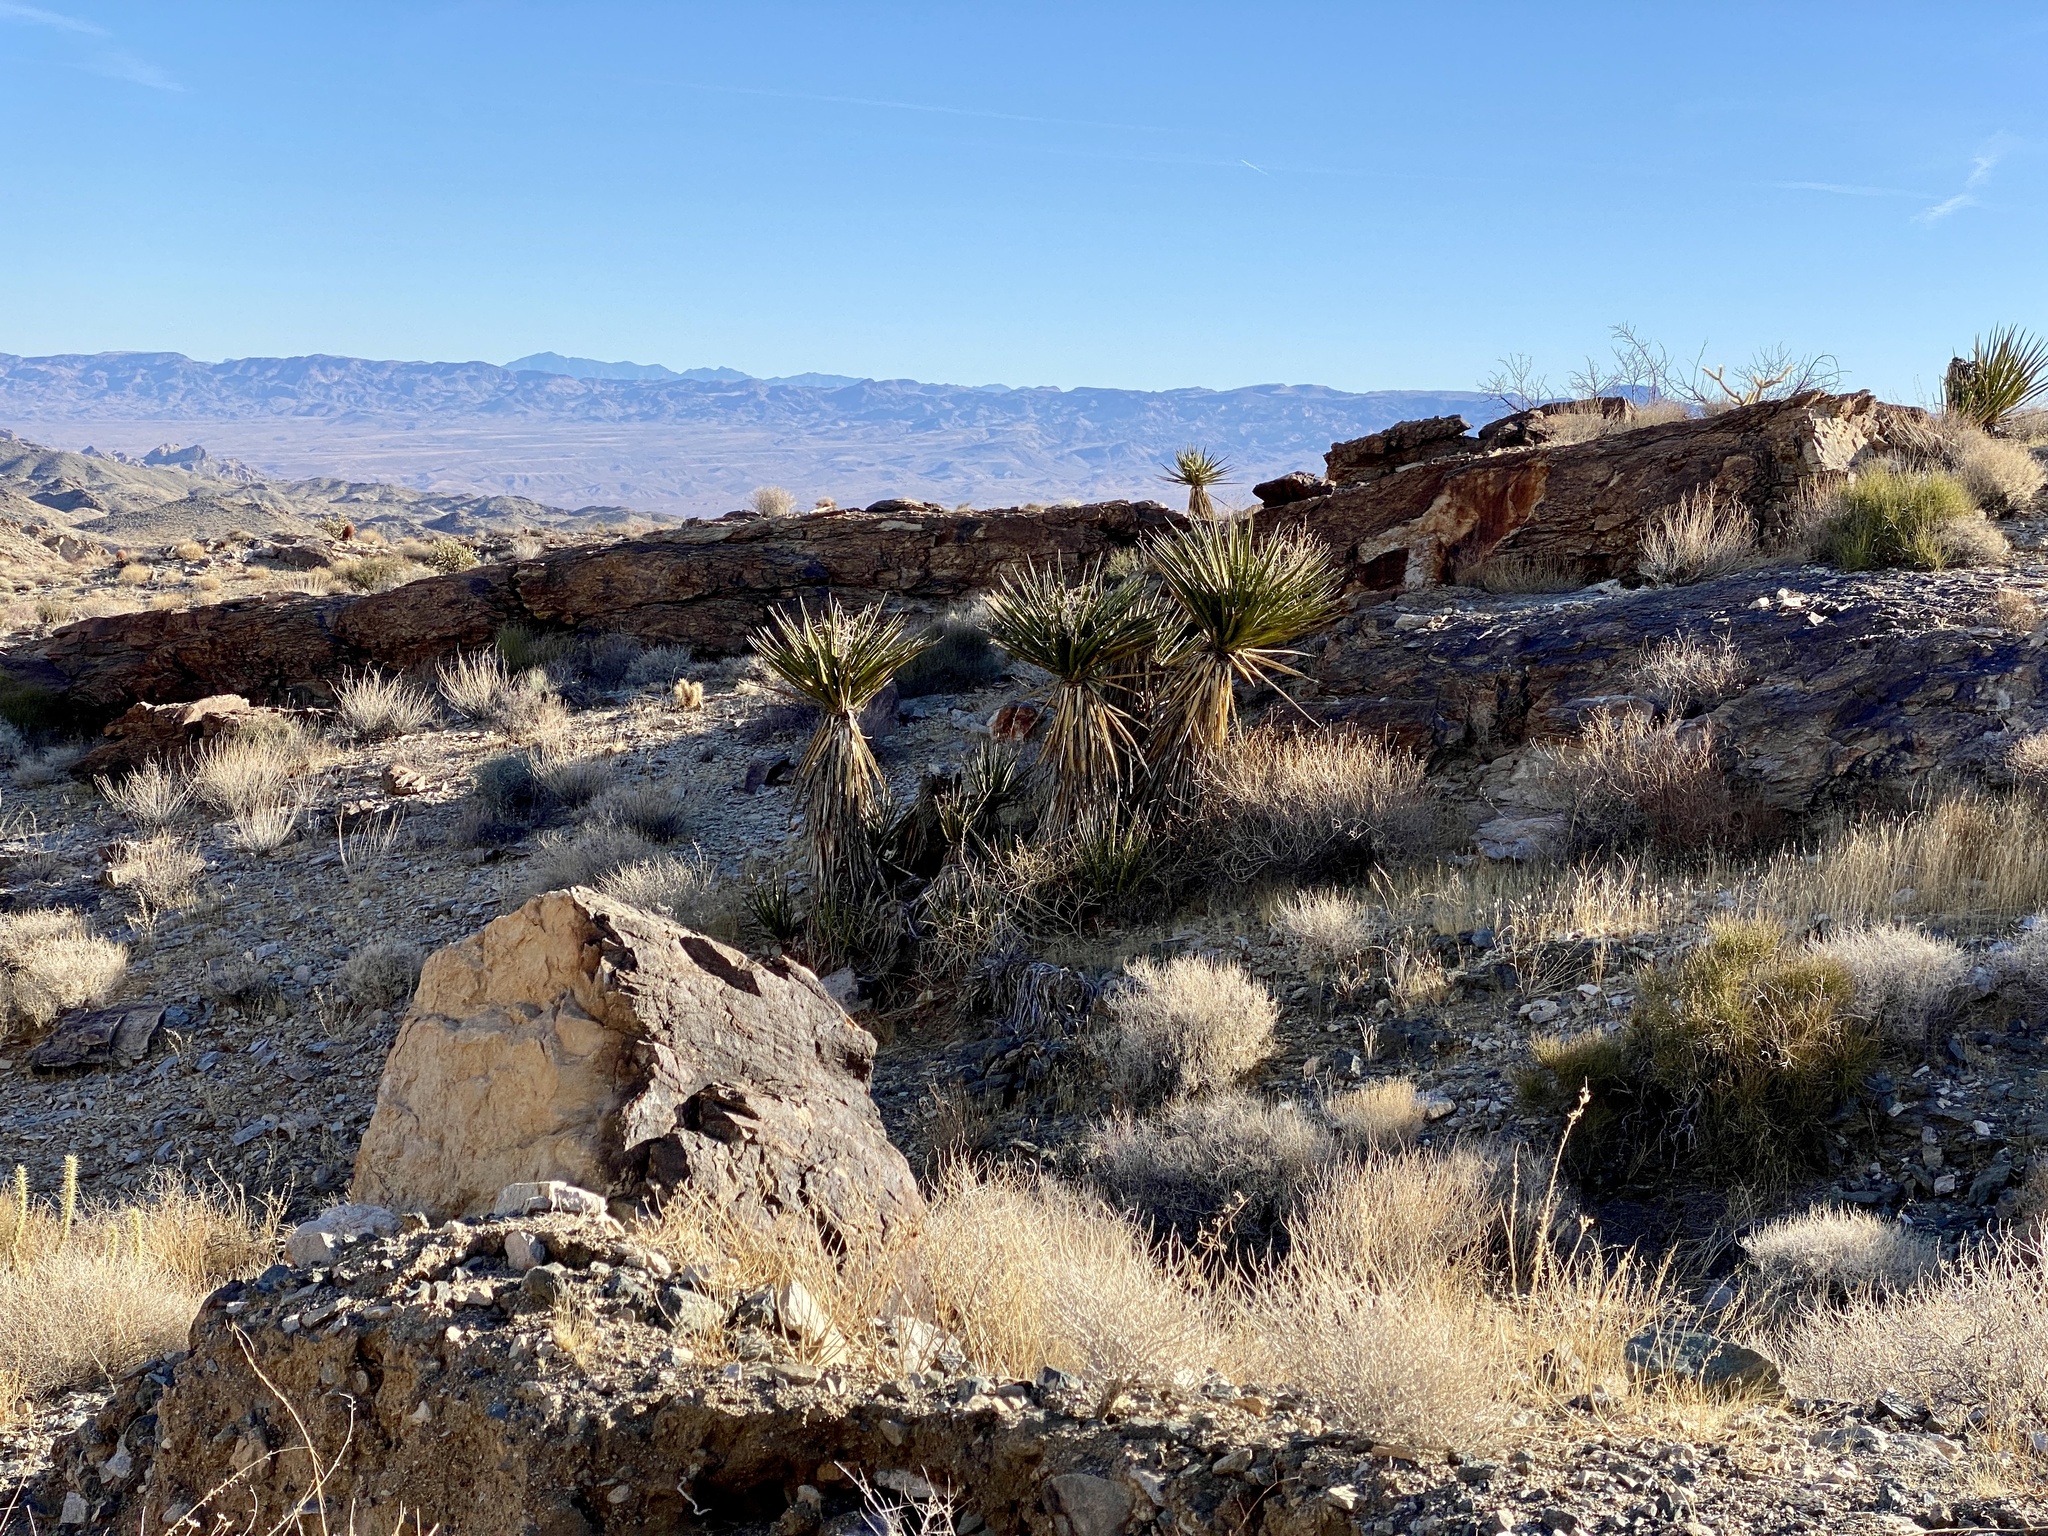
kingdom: Plantae
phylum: Tracheophyta
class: Liliopsida
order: Asparagales
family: Asparagaceae
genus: Yucca
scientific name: Yucca schidigera
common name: Mojave yucca
